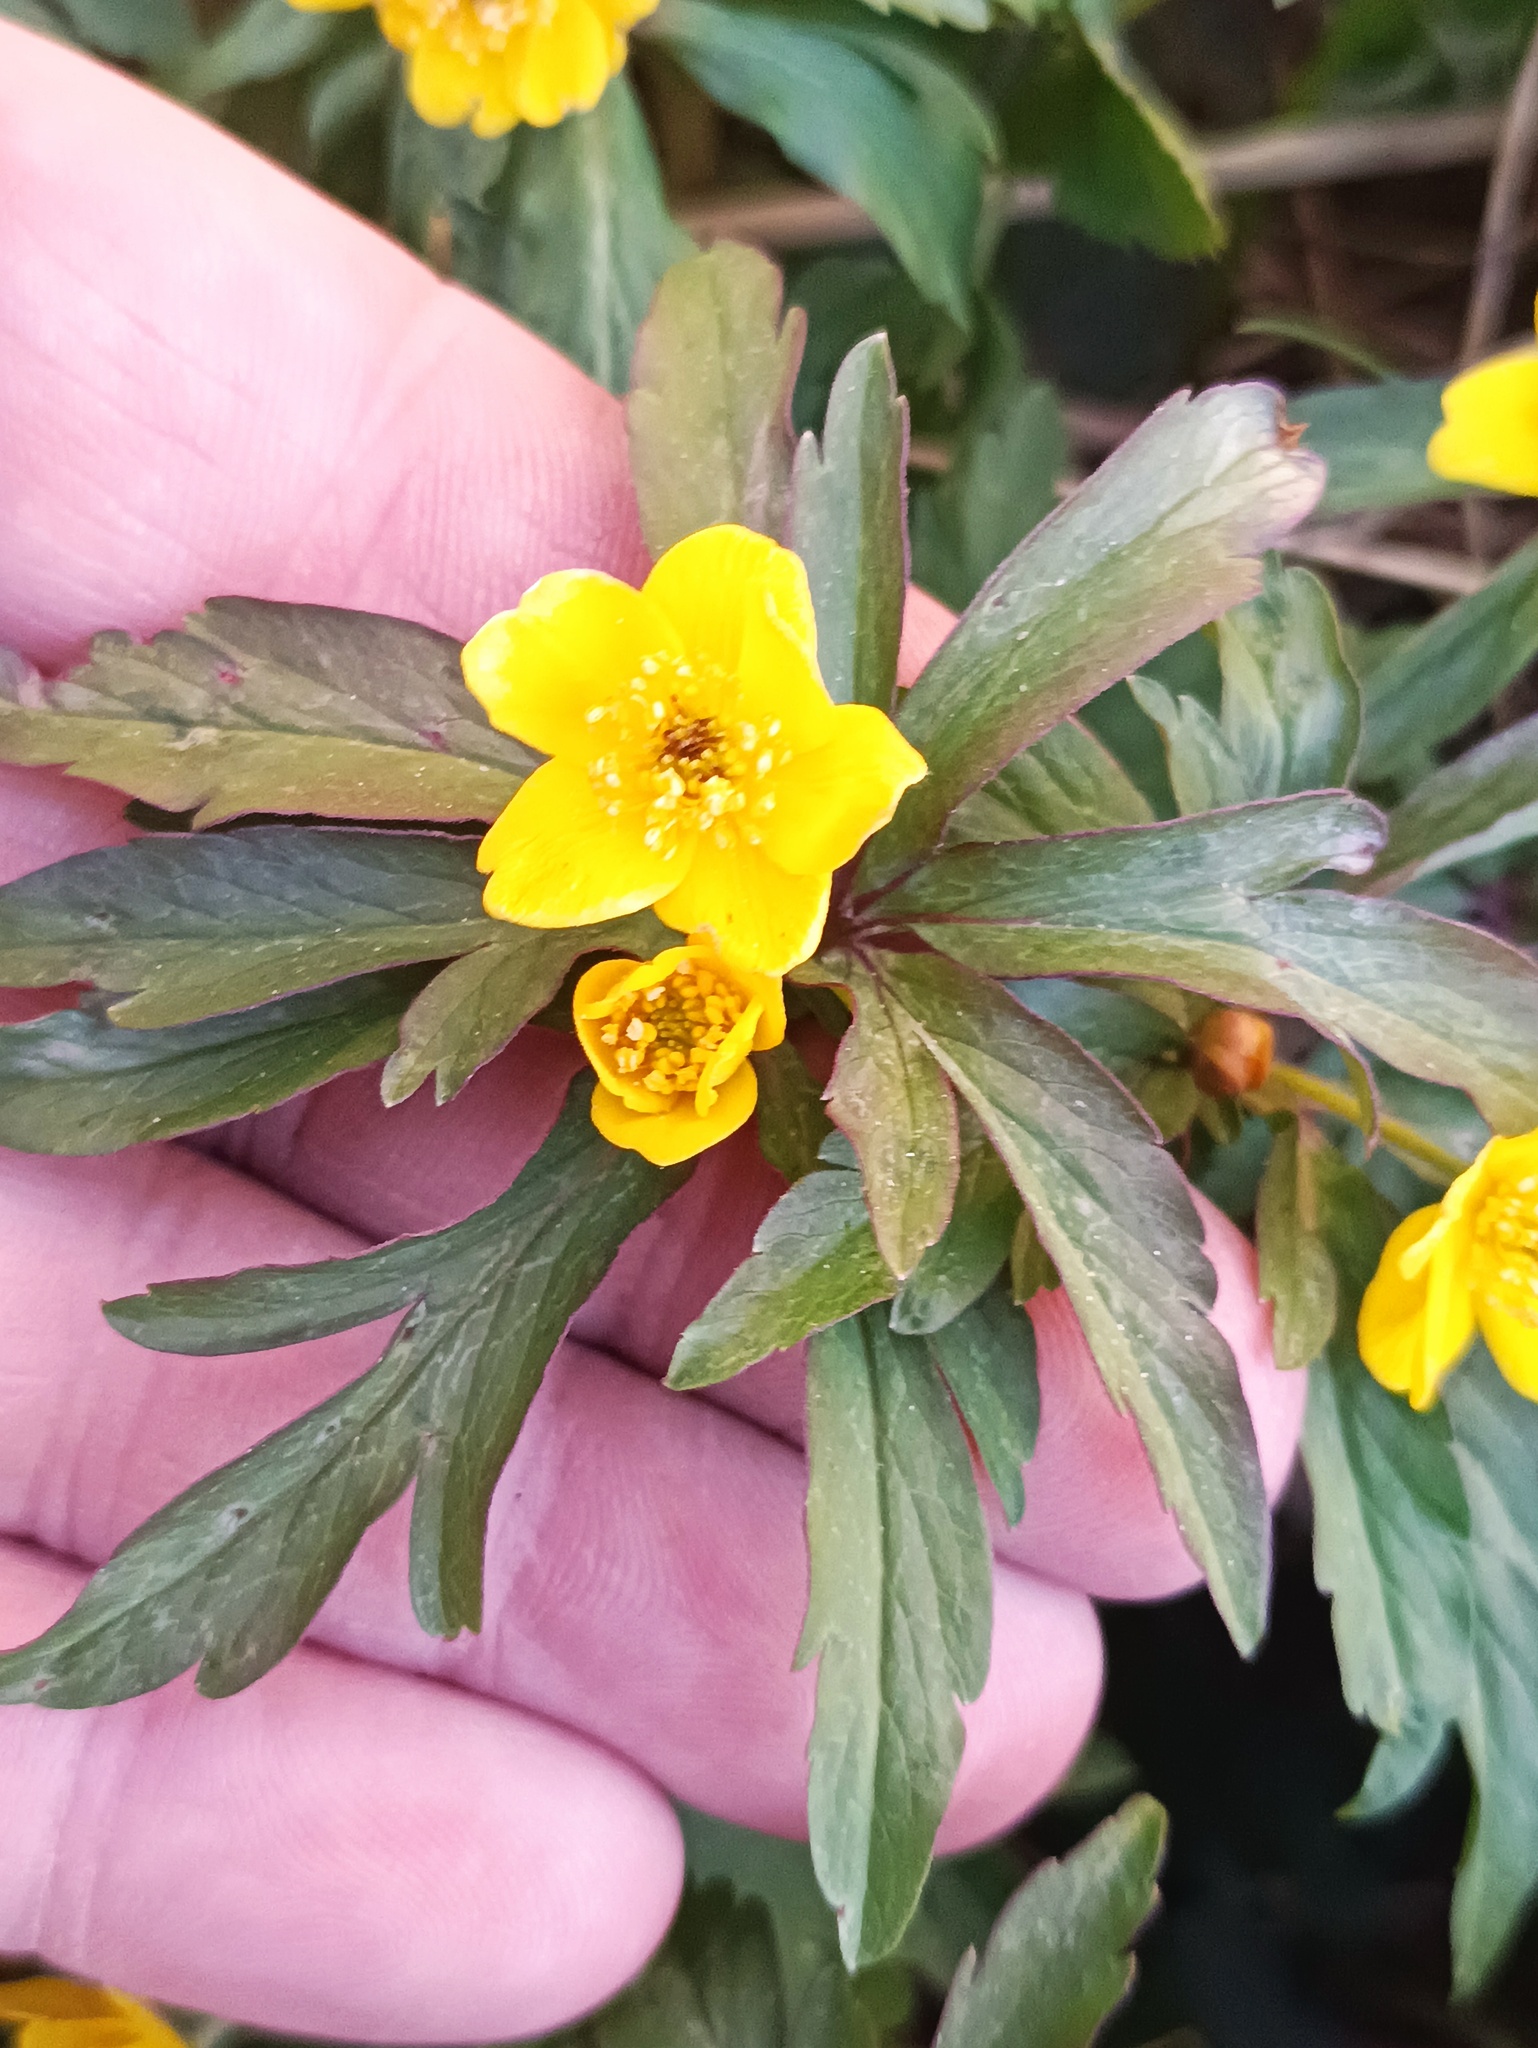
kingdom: Plantae
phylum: Tracheophyta
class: Magnoliopsida
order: Ranunculales
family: Ranunculaceae
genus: Anemone
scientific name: Anemone ranunculoides
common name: Yellow anemone
